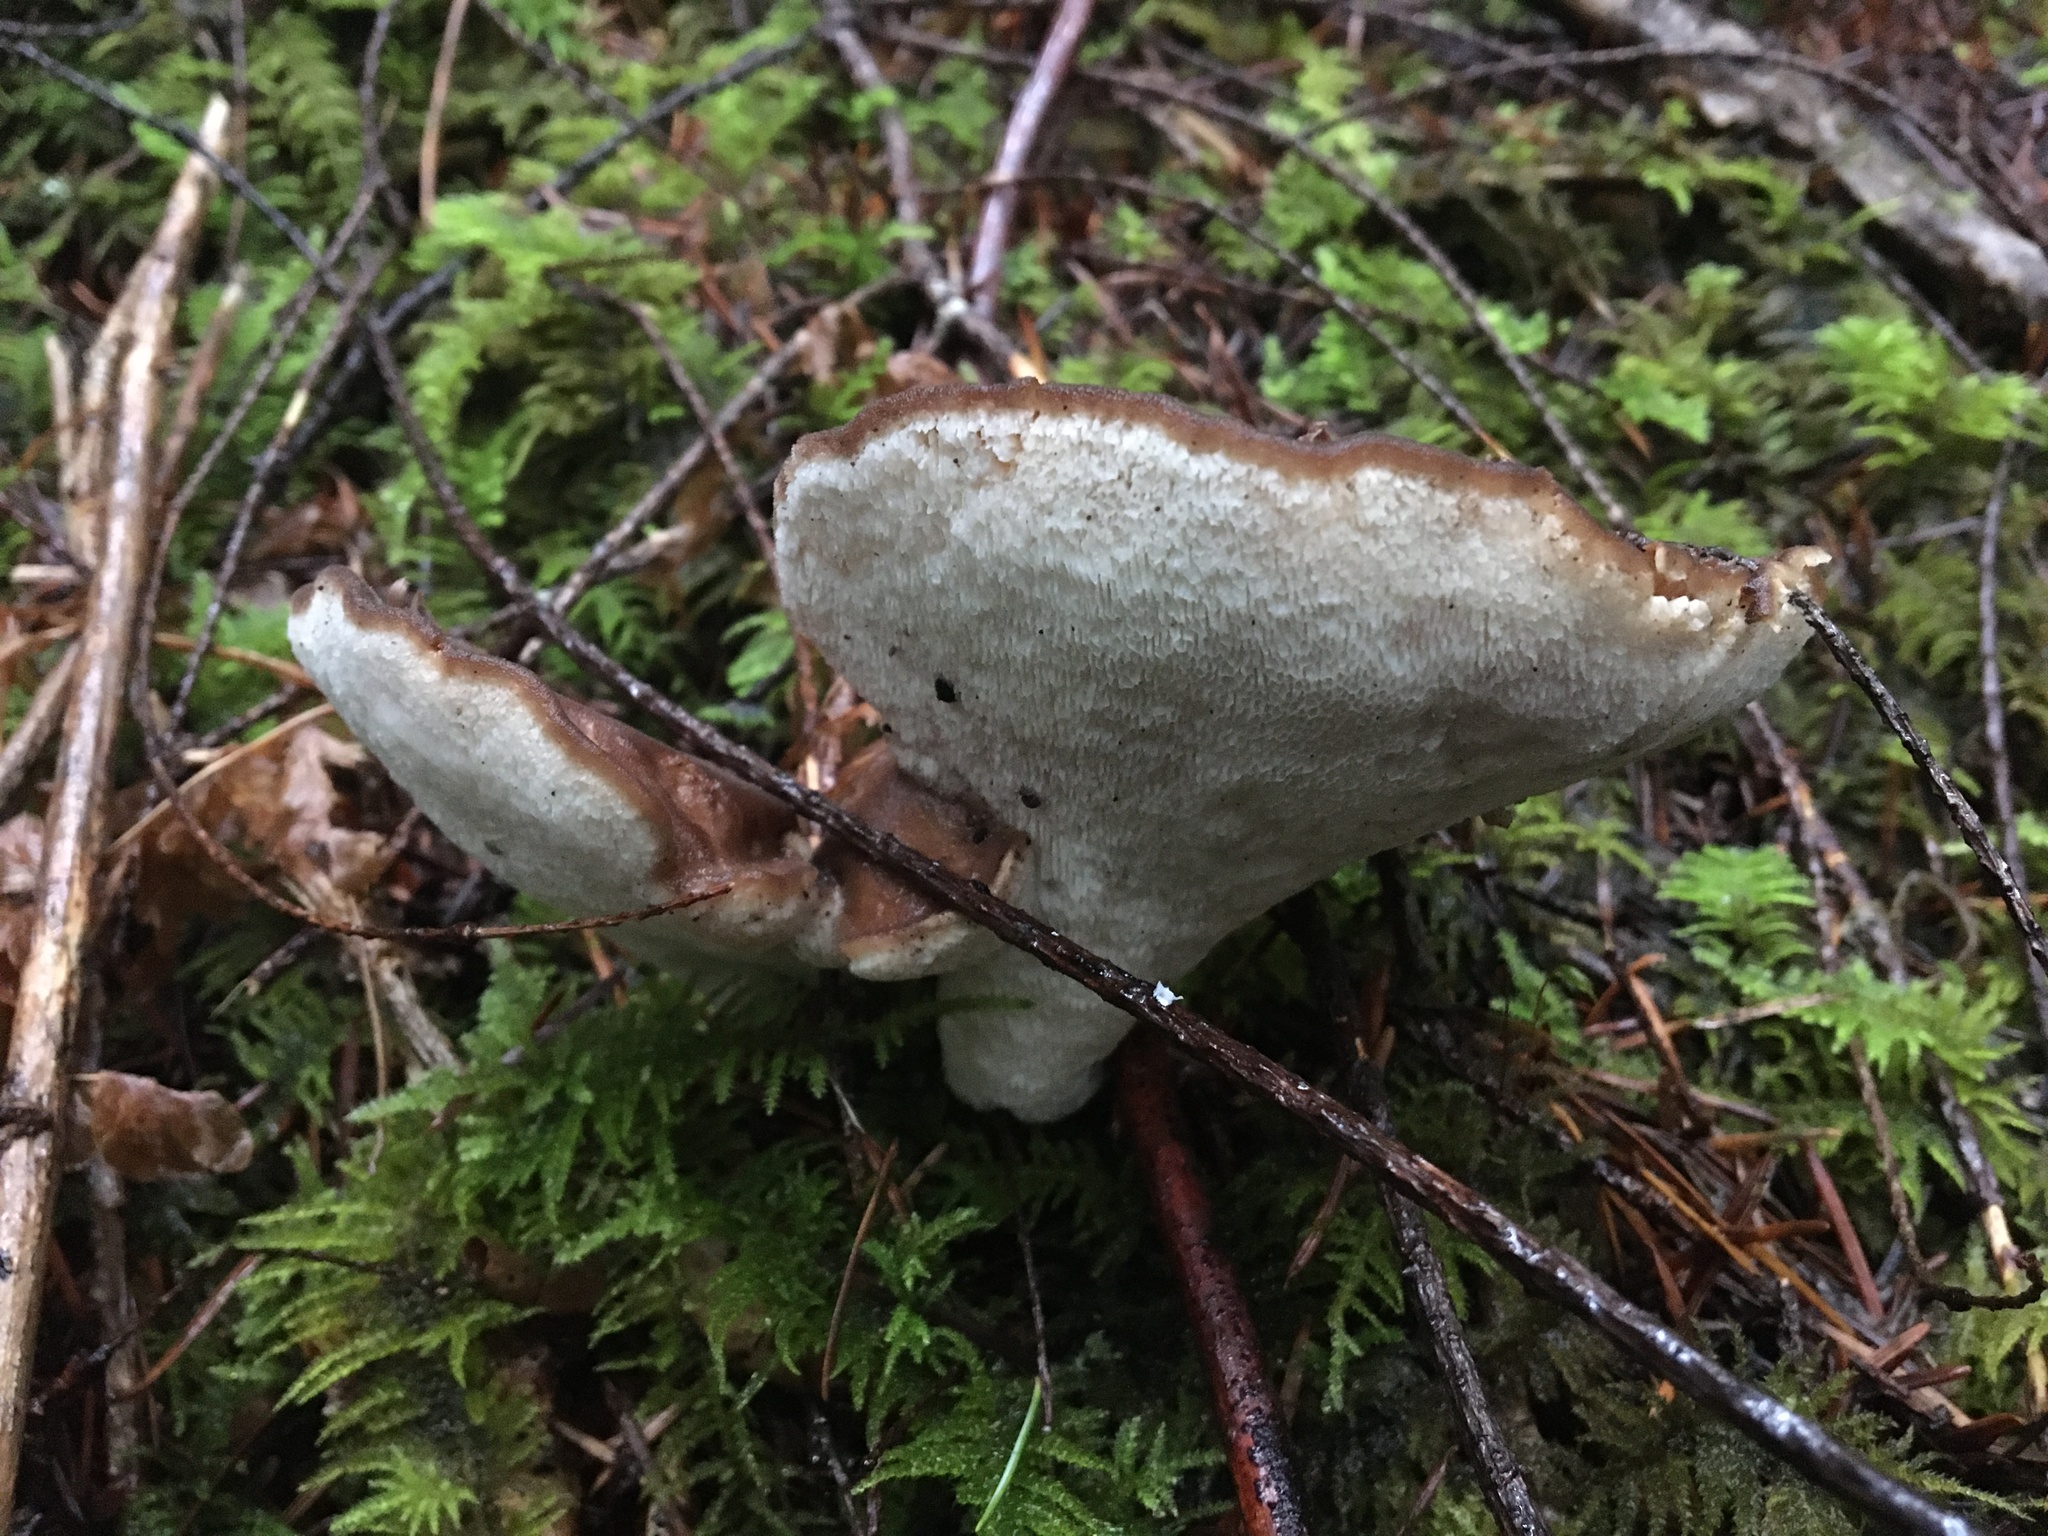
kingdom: Fungi
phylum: Basidiomycota
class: Agaricomycetes
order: Polyporales
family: Dacryobolaceae
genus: Jahnoporus
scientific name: Jahnoporus hirtus
